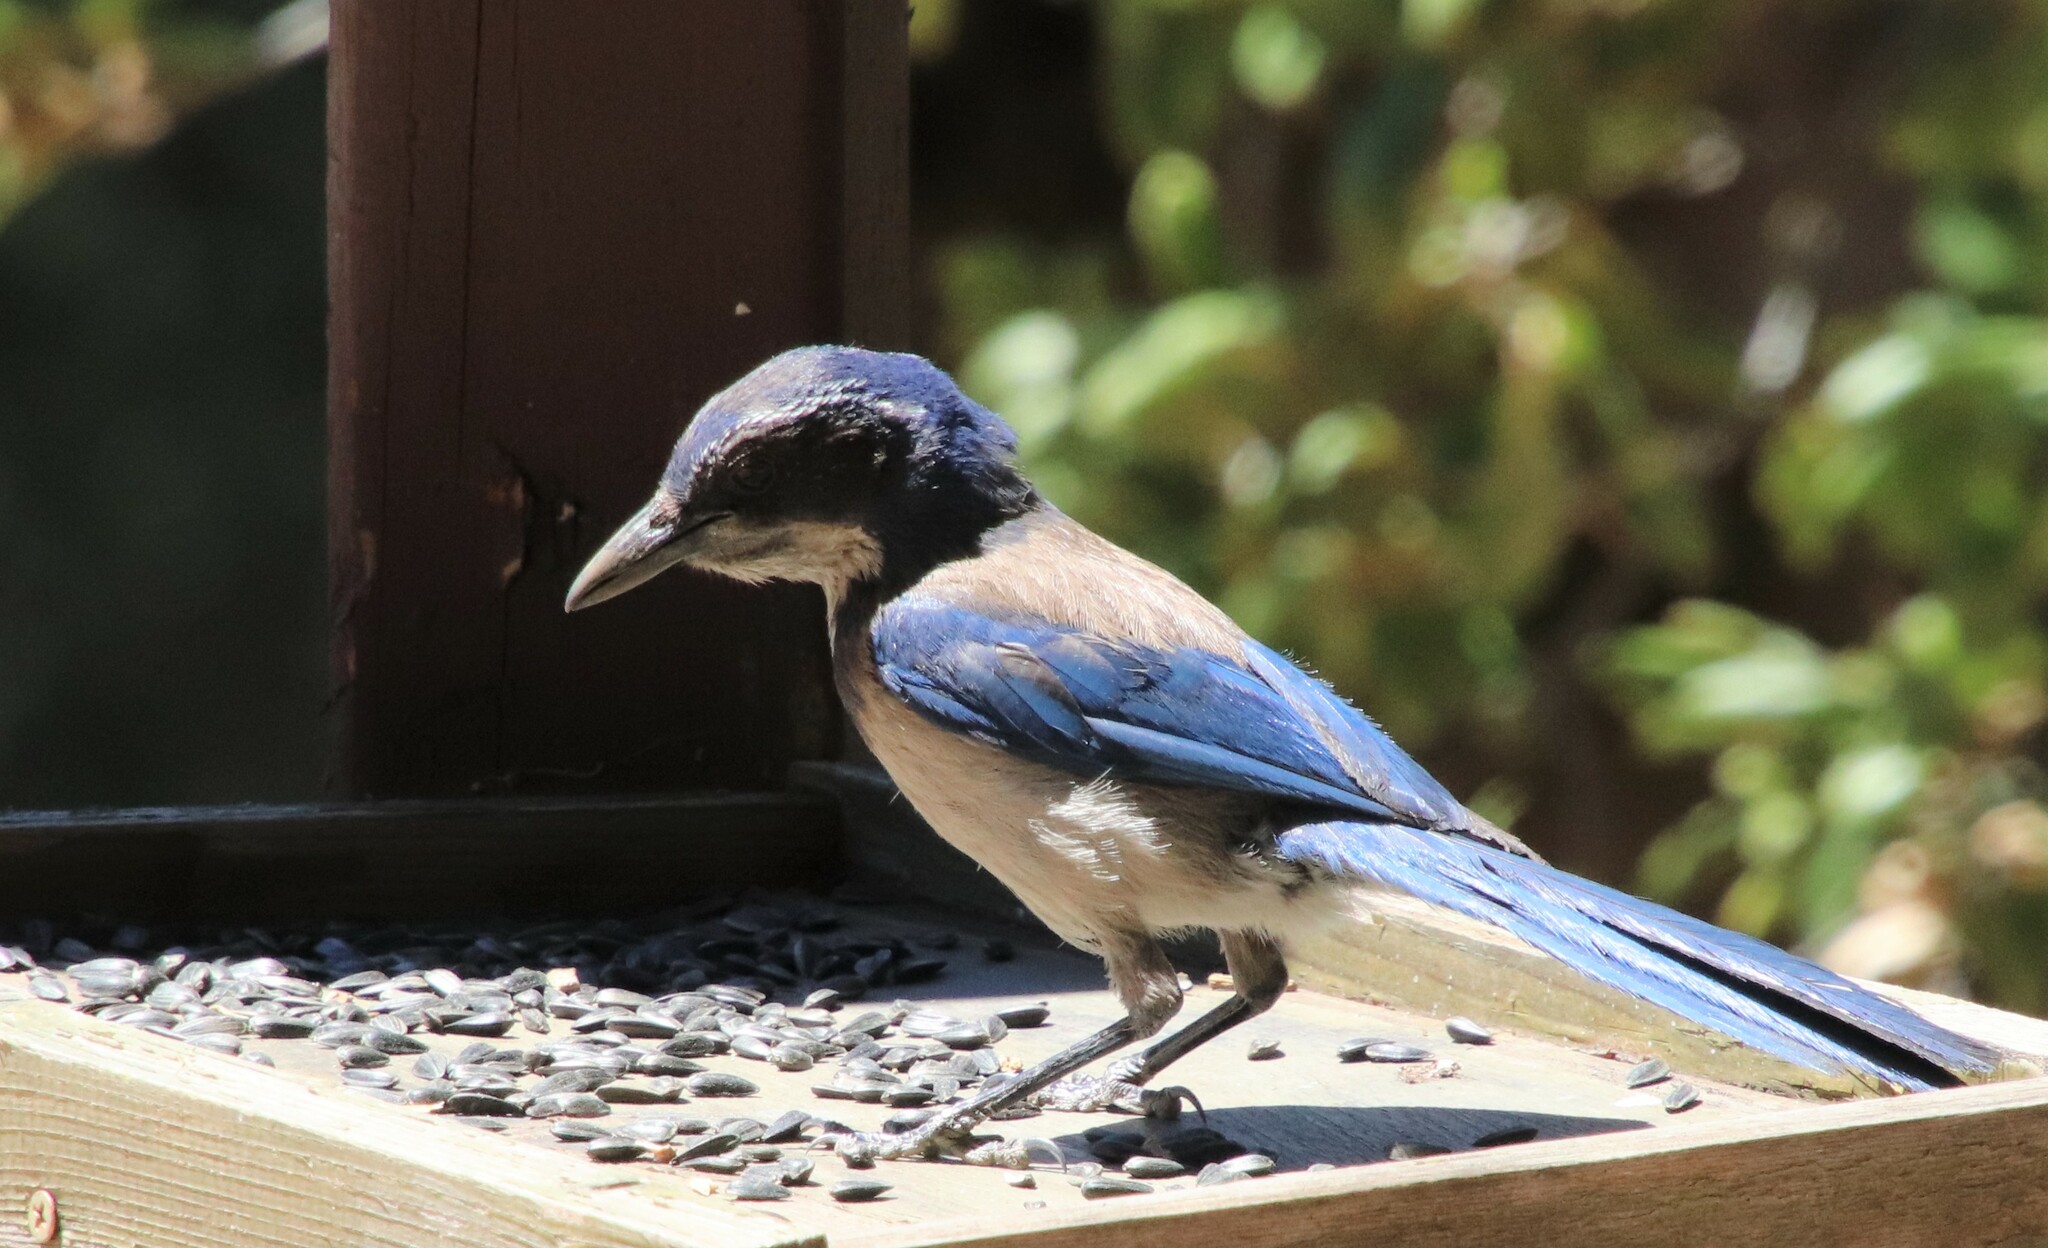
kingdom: Animalia
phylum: Chordata
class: Aves
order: Passeriformes
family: Corvidae
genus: Aphelocoma
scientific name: Aphelocoma californica
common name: California scrub-jay
